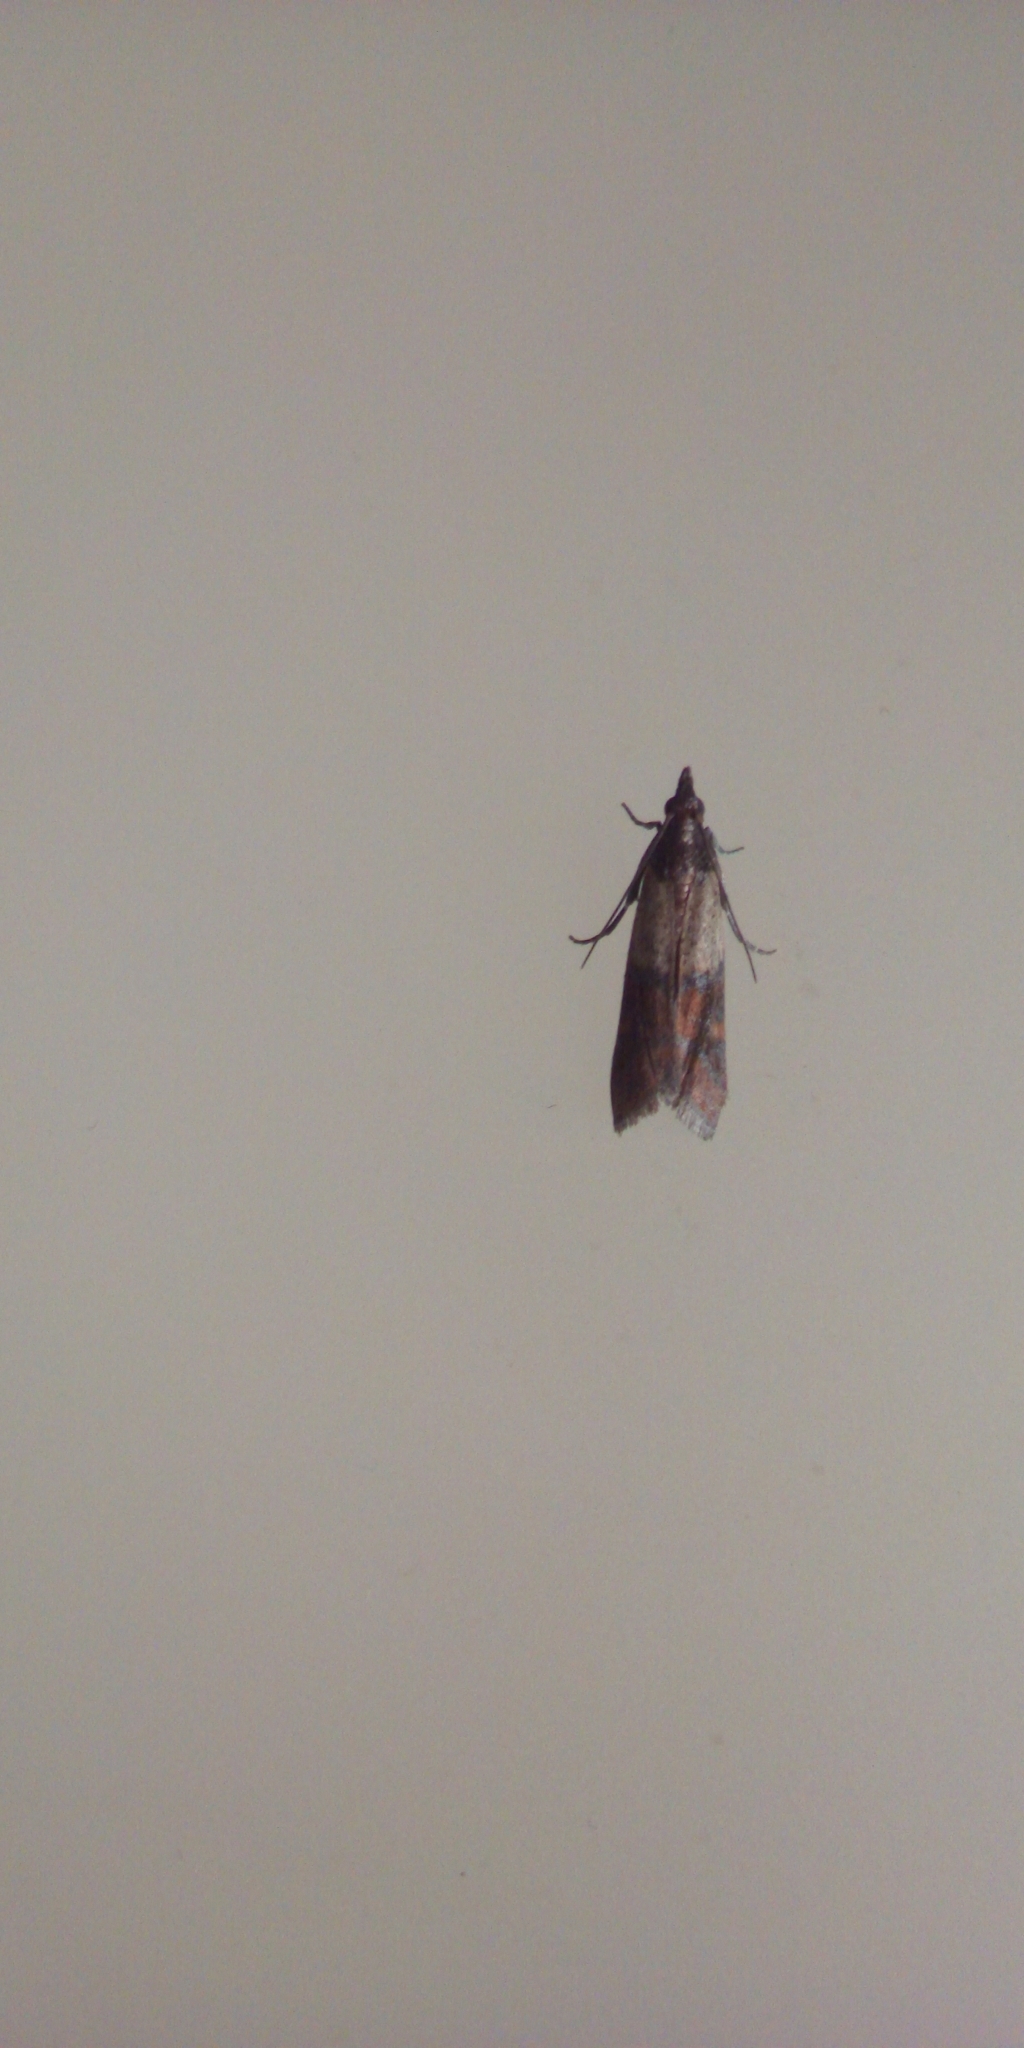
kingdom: Animalia
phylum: Arthropoda
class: Insecta
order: Lepidoptera
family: Pyralidae
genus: Plodia
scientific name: Plodia interpunctella
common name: Indian meal moth
